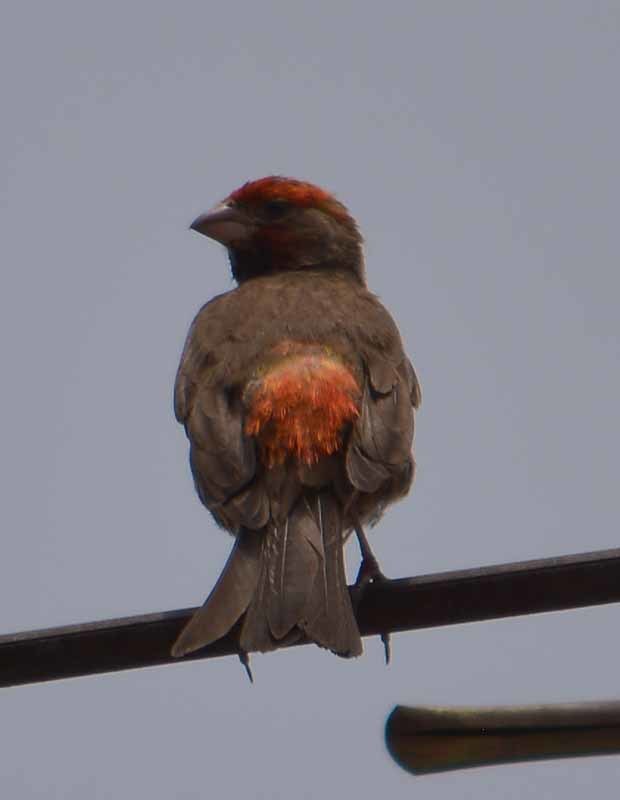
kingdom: Animalia
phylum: Chordata
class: Aves
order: Passeriformes
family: Fringillidae
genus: Haemorhous
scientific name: Haemorhous mexicanus
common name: House finch
